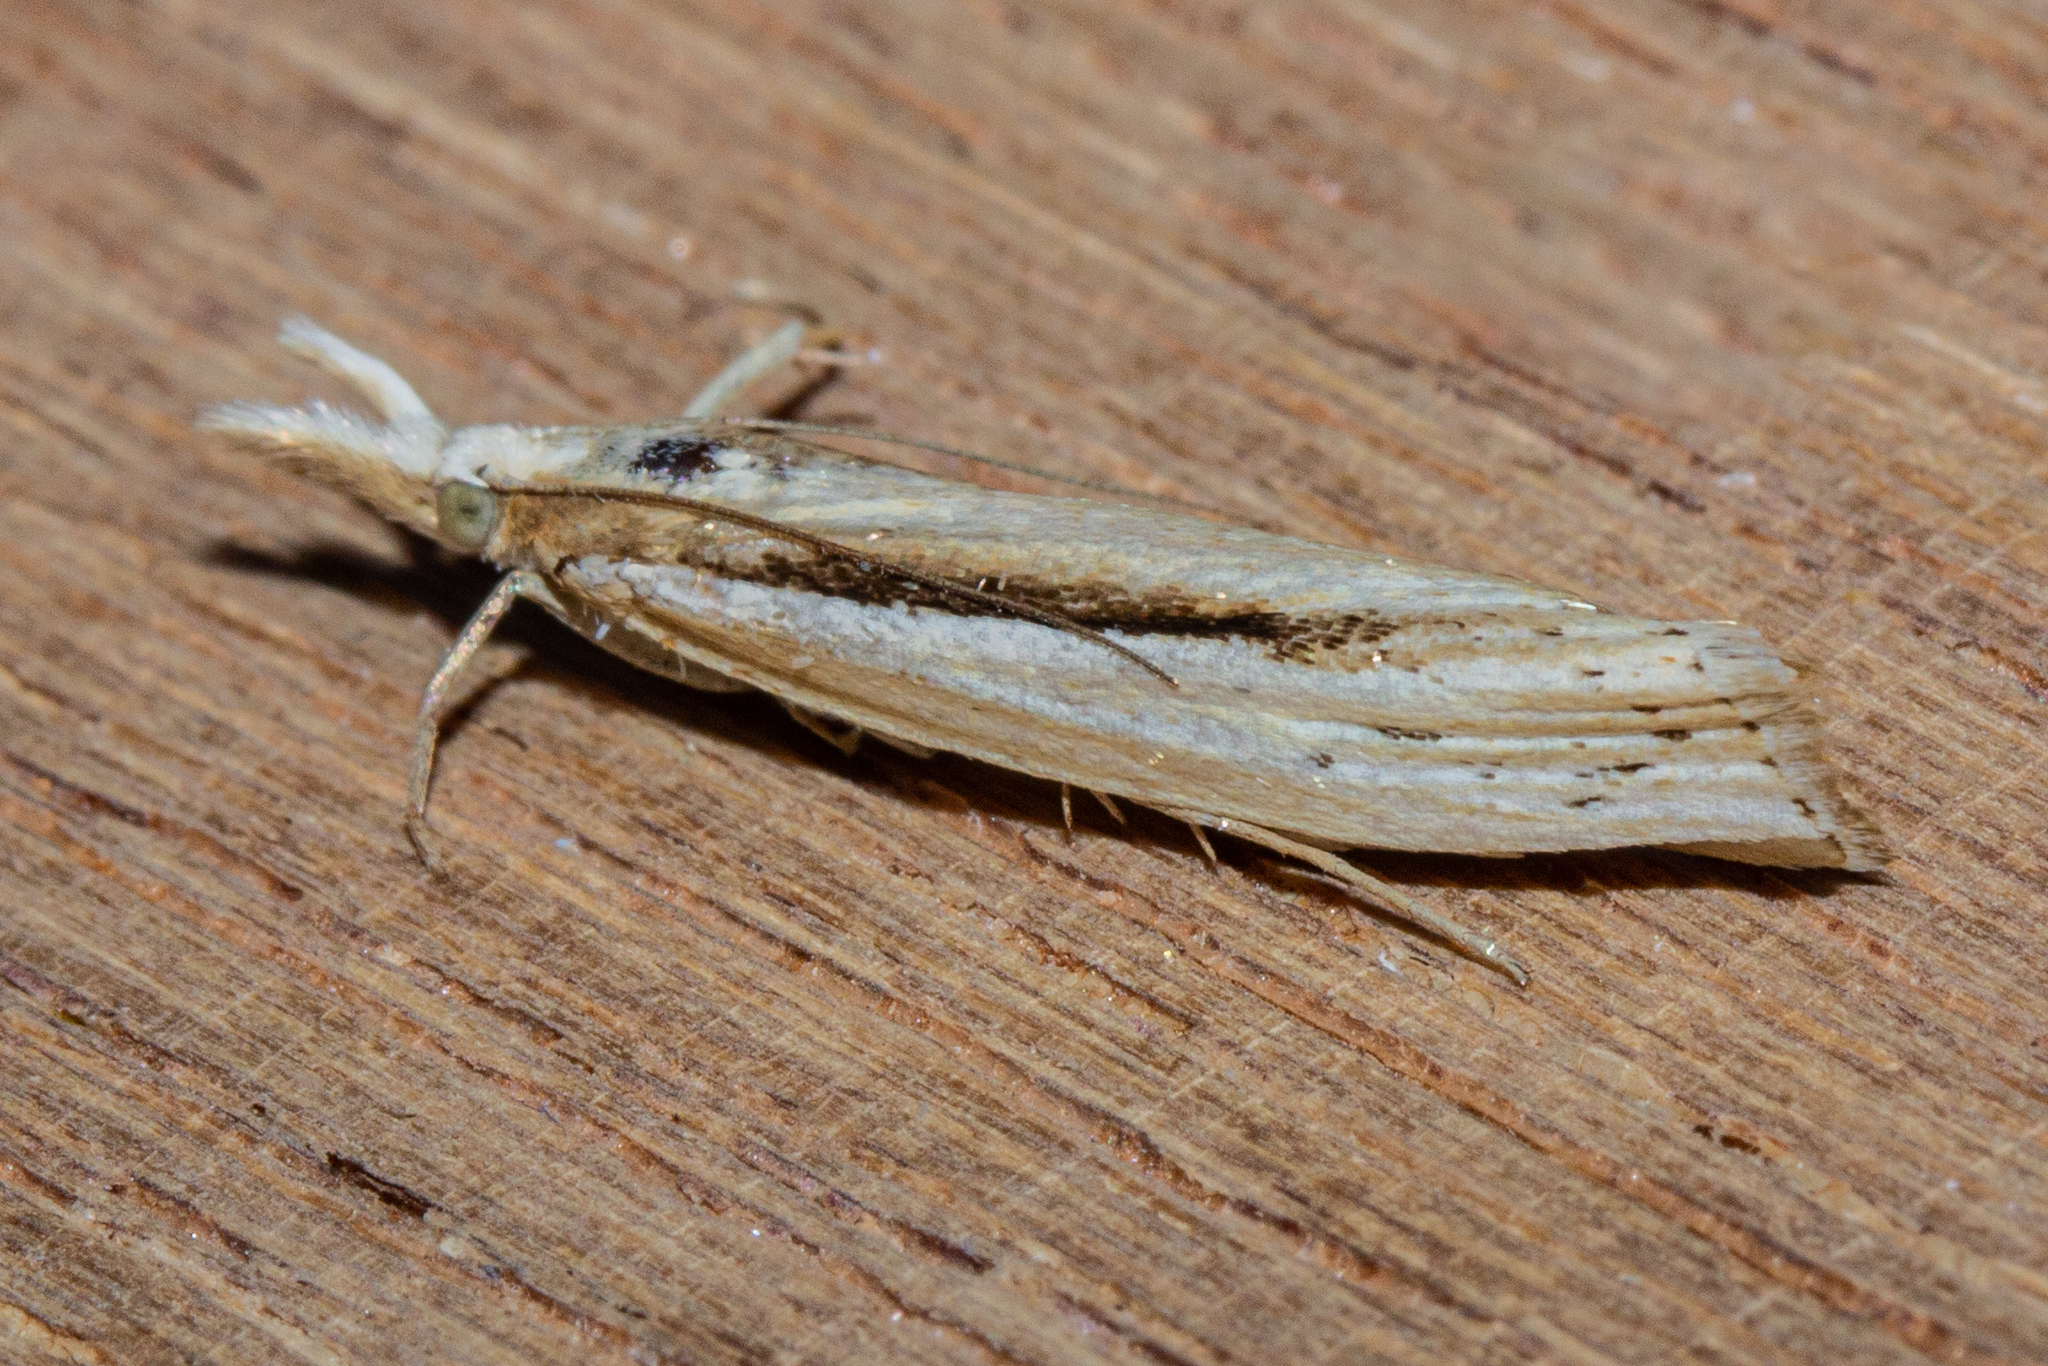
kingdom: Animalia
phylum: Arthropoda
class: Insecta
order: Lepidoptera
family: Crambidae
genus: Orocrambus
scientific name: Orocrambus ramosellus
